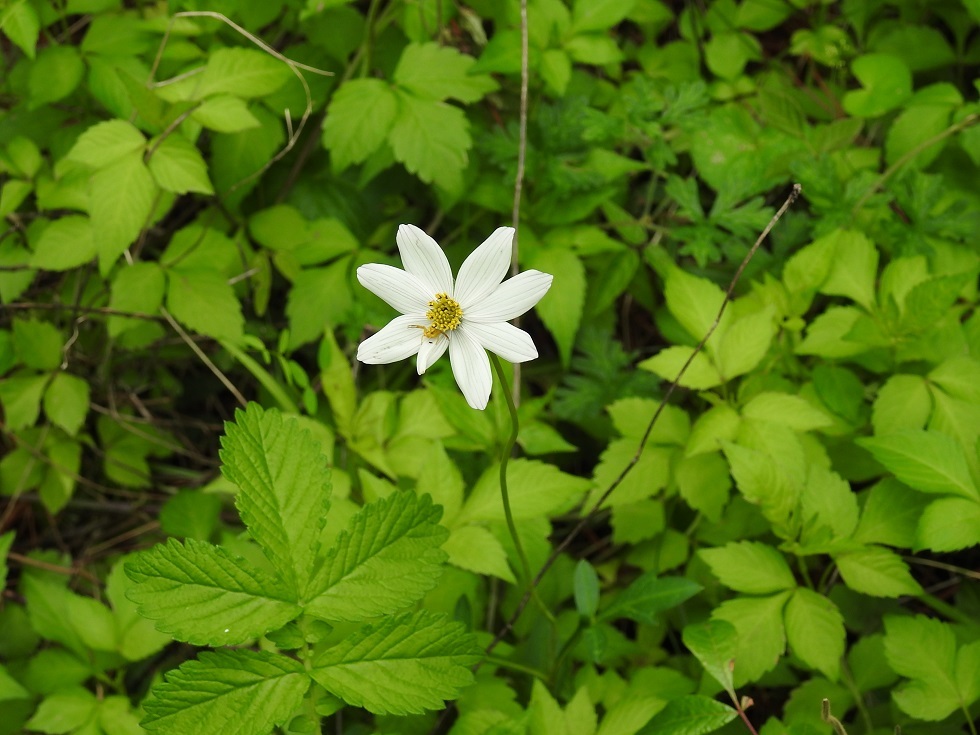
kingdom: Plantae
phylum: Tracheophyta
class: Magnoliopsida
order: Asterales
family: Asteraceae
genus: Cosmos
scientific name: Cosmos diversifolius
